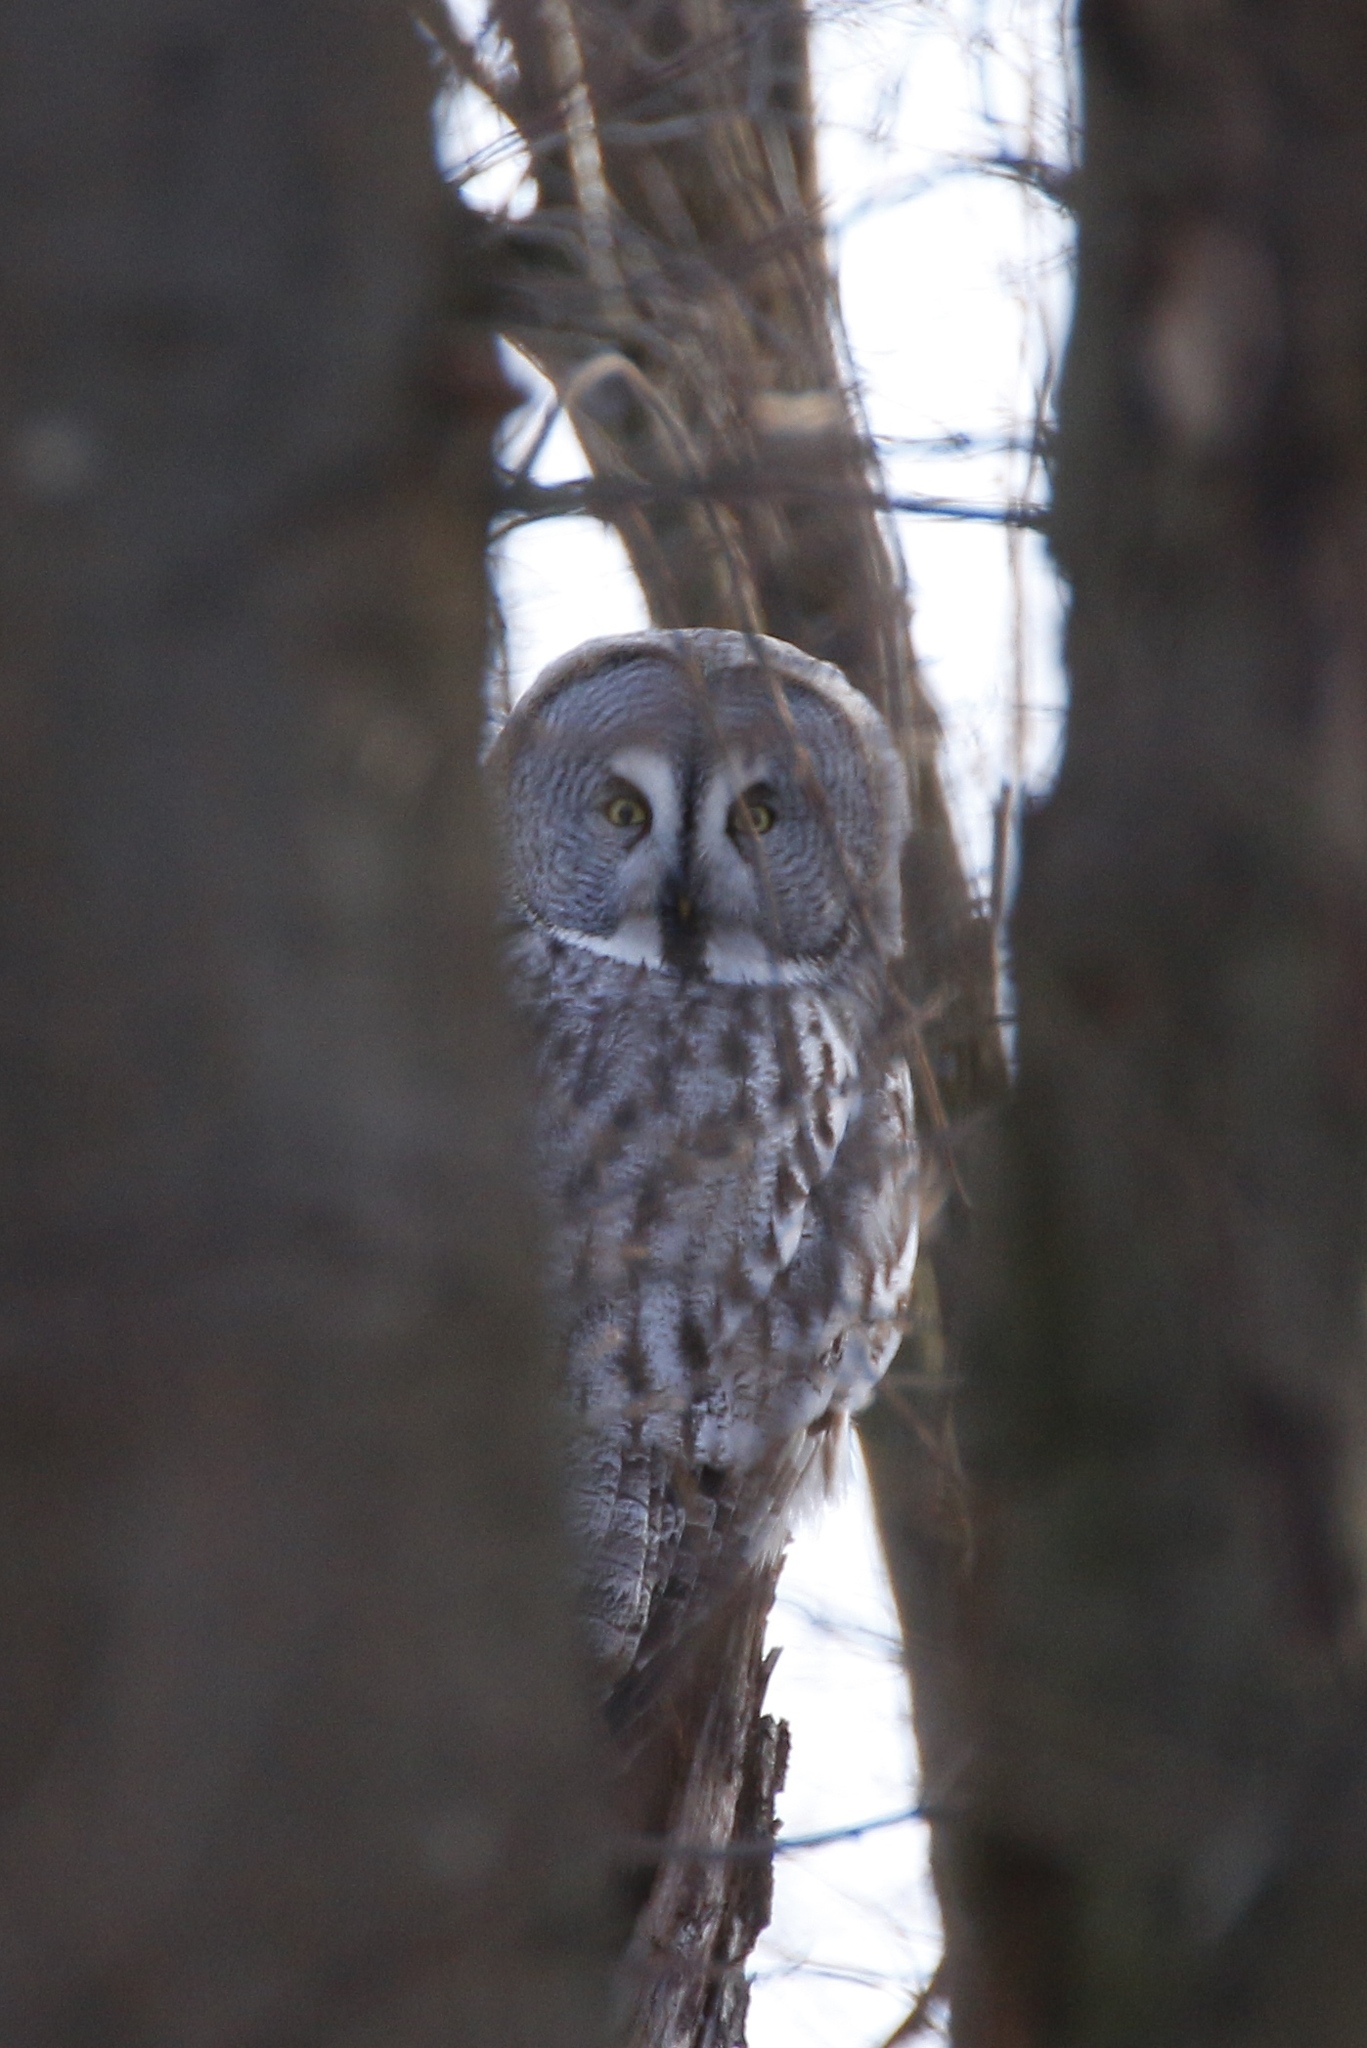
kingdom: Animalia
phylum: Chordata
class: Aves
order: Strigiformes
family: Strigidae
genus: Strix
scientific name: Strix nebulosa
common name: Great grey owl
